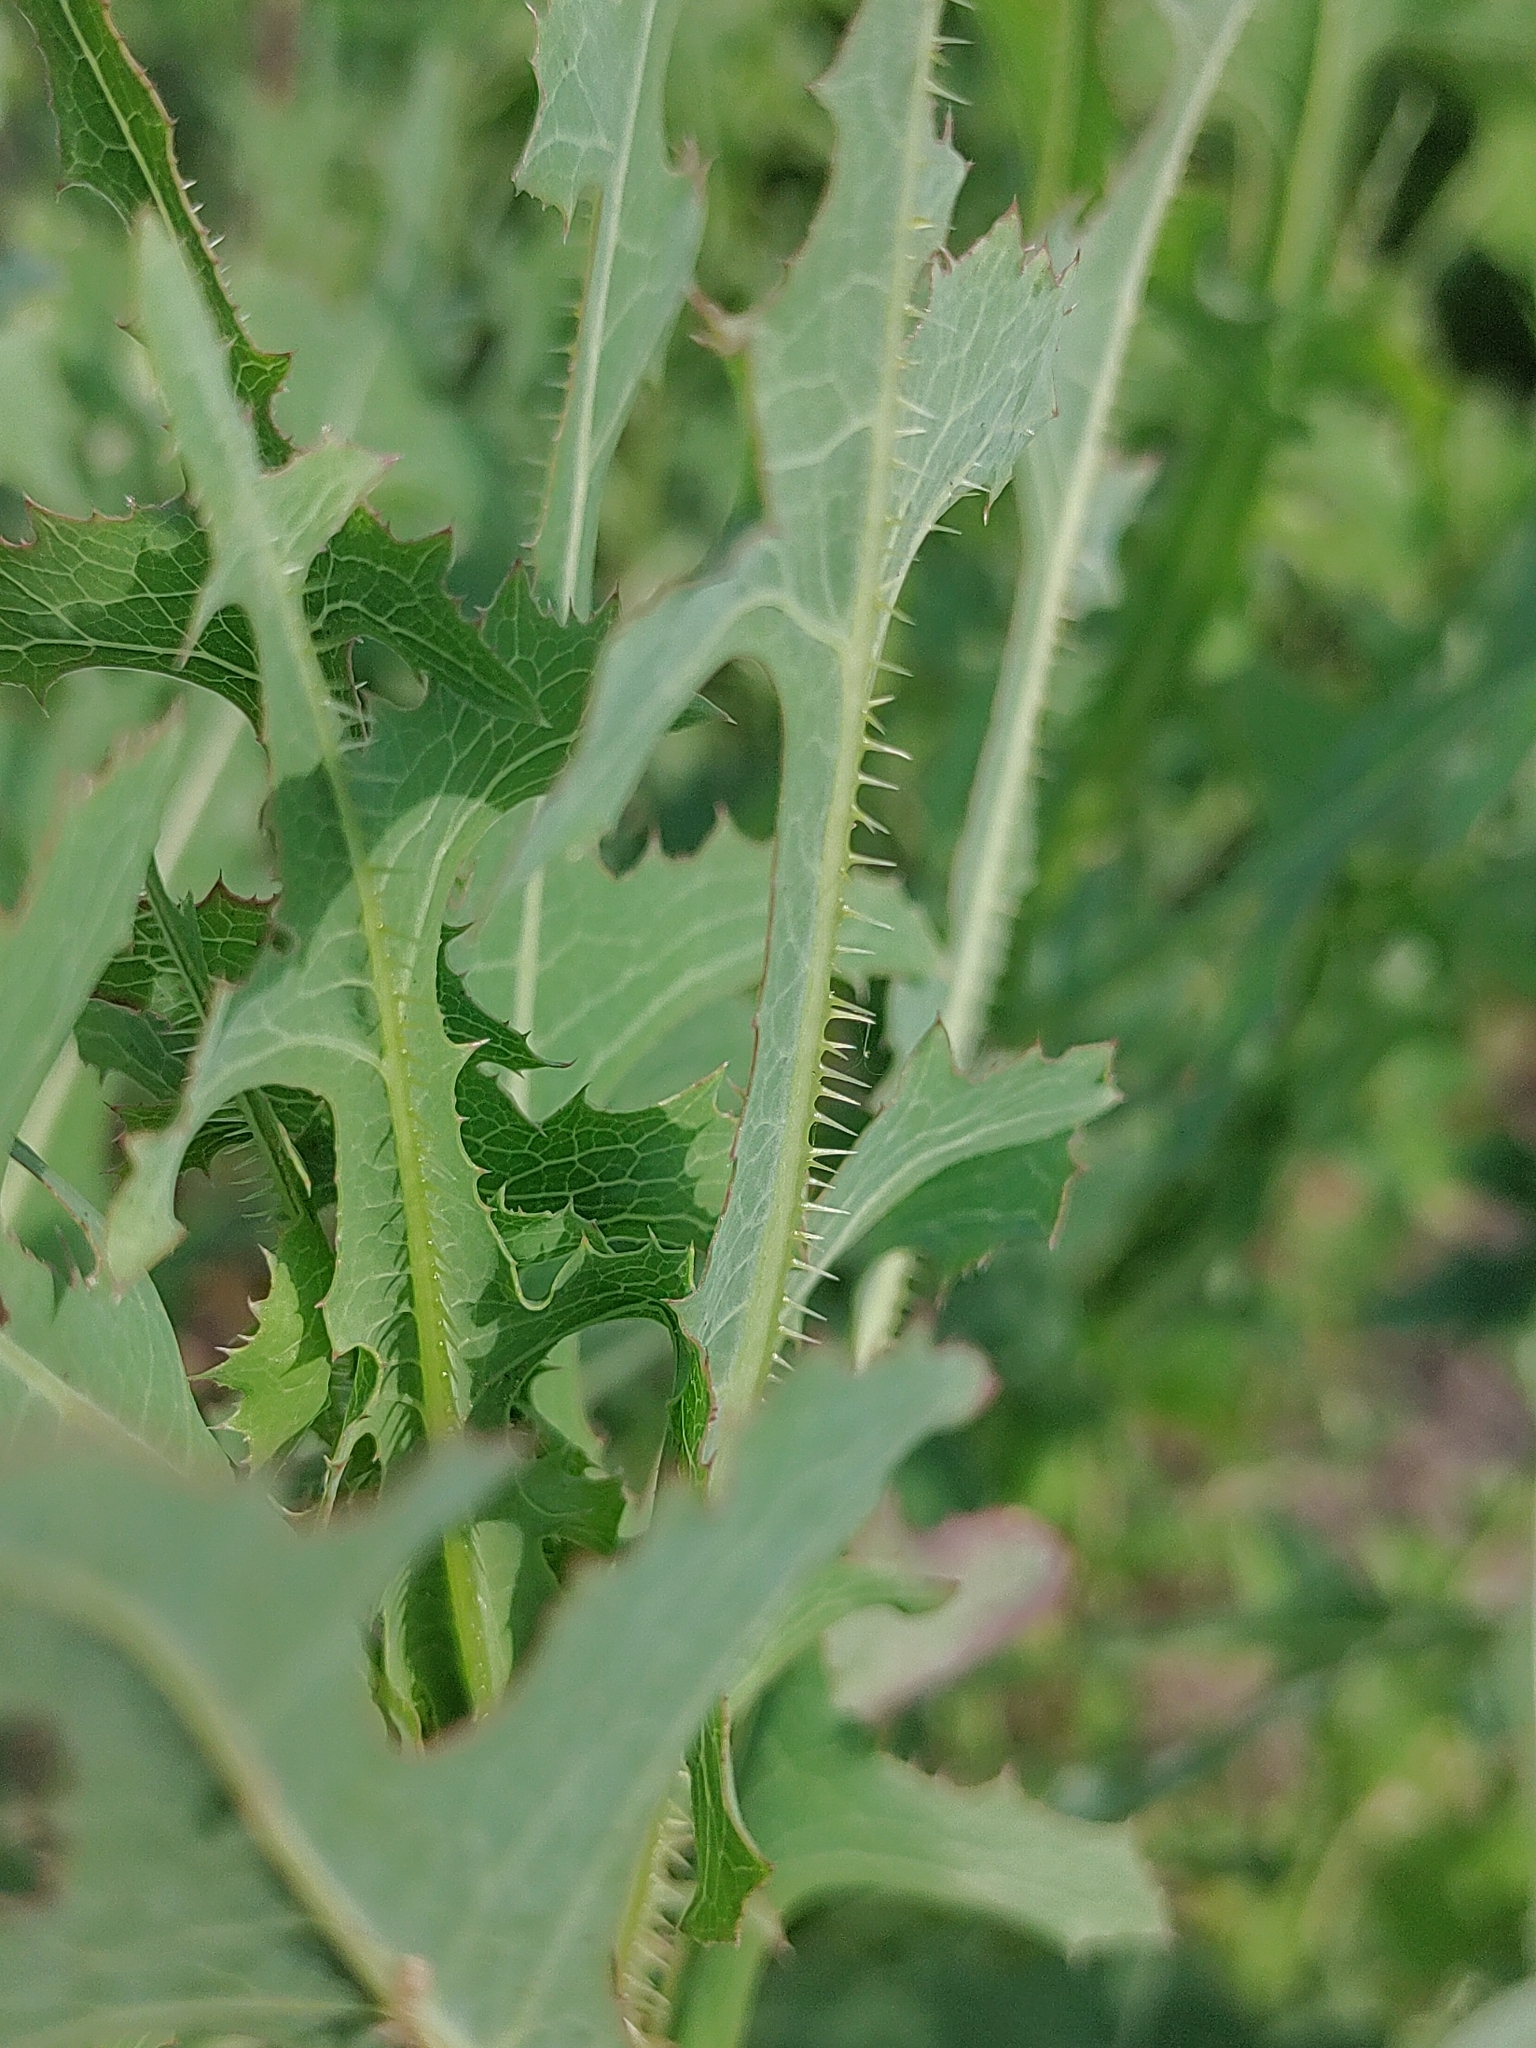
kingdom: Plantae
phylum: Tracheophyta
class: Magnoliopsida
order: Asterales
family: Asteraceae
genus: Lactuca
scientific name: Lactuca serriola
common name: Prickly lettuce
